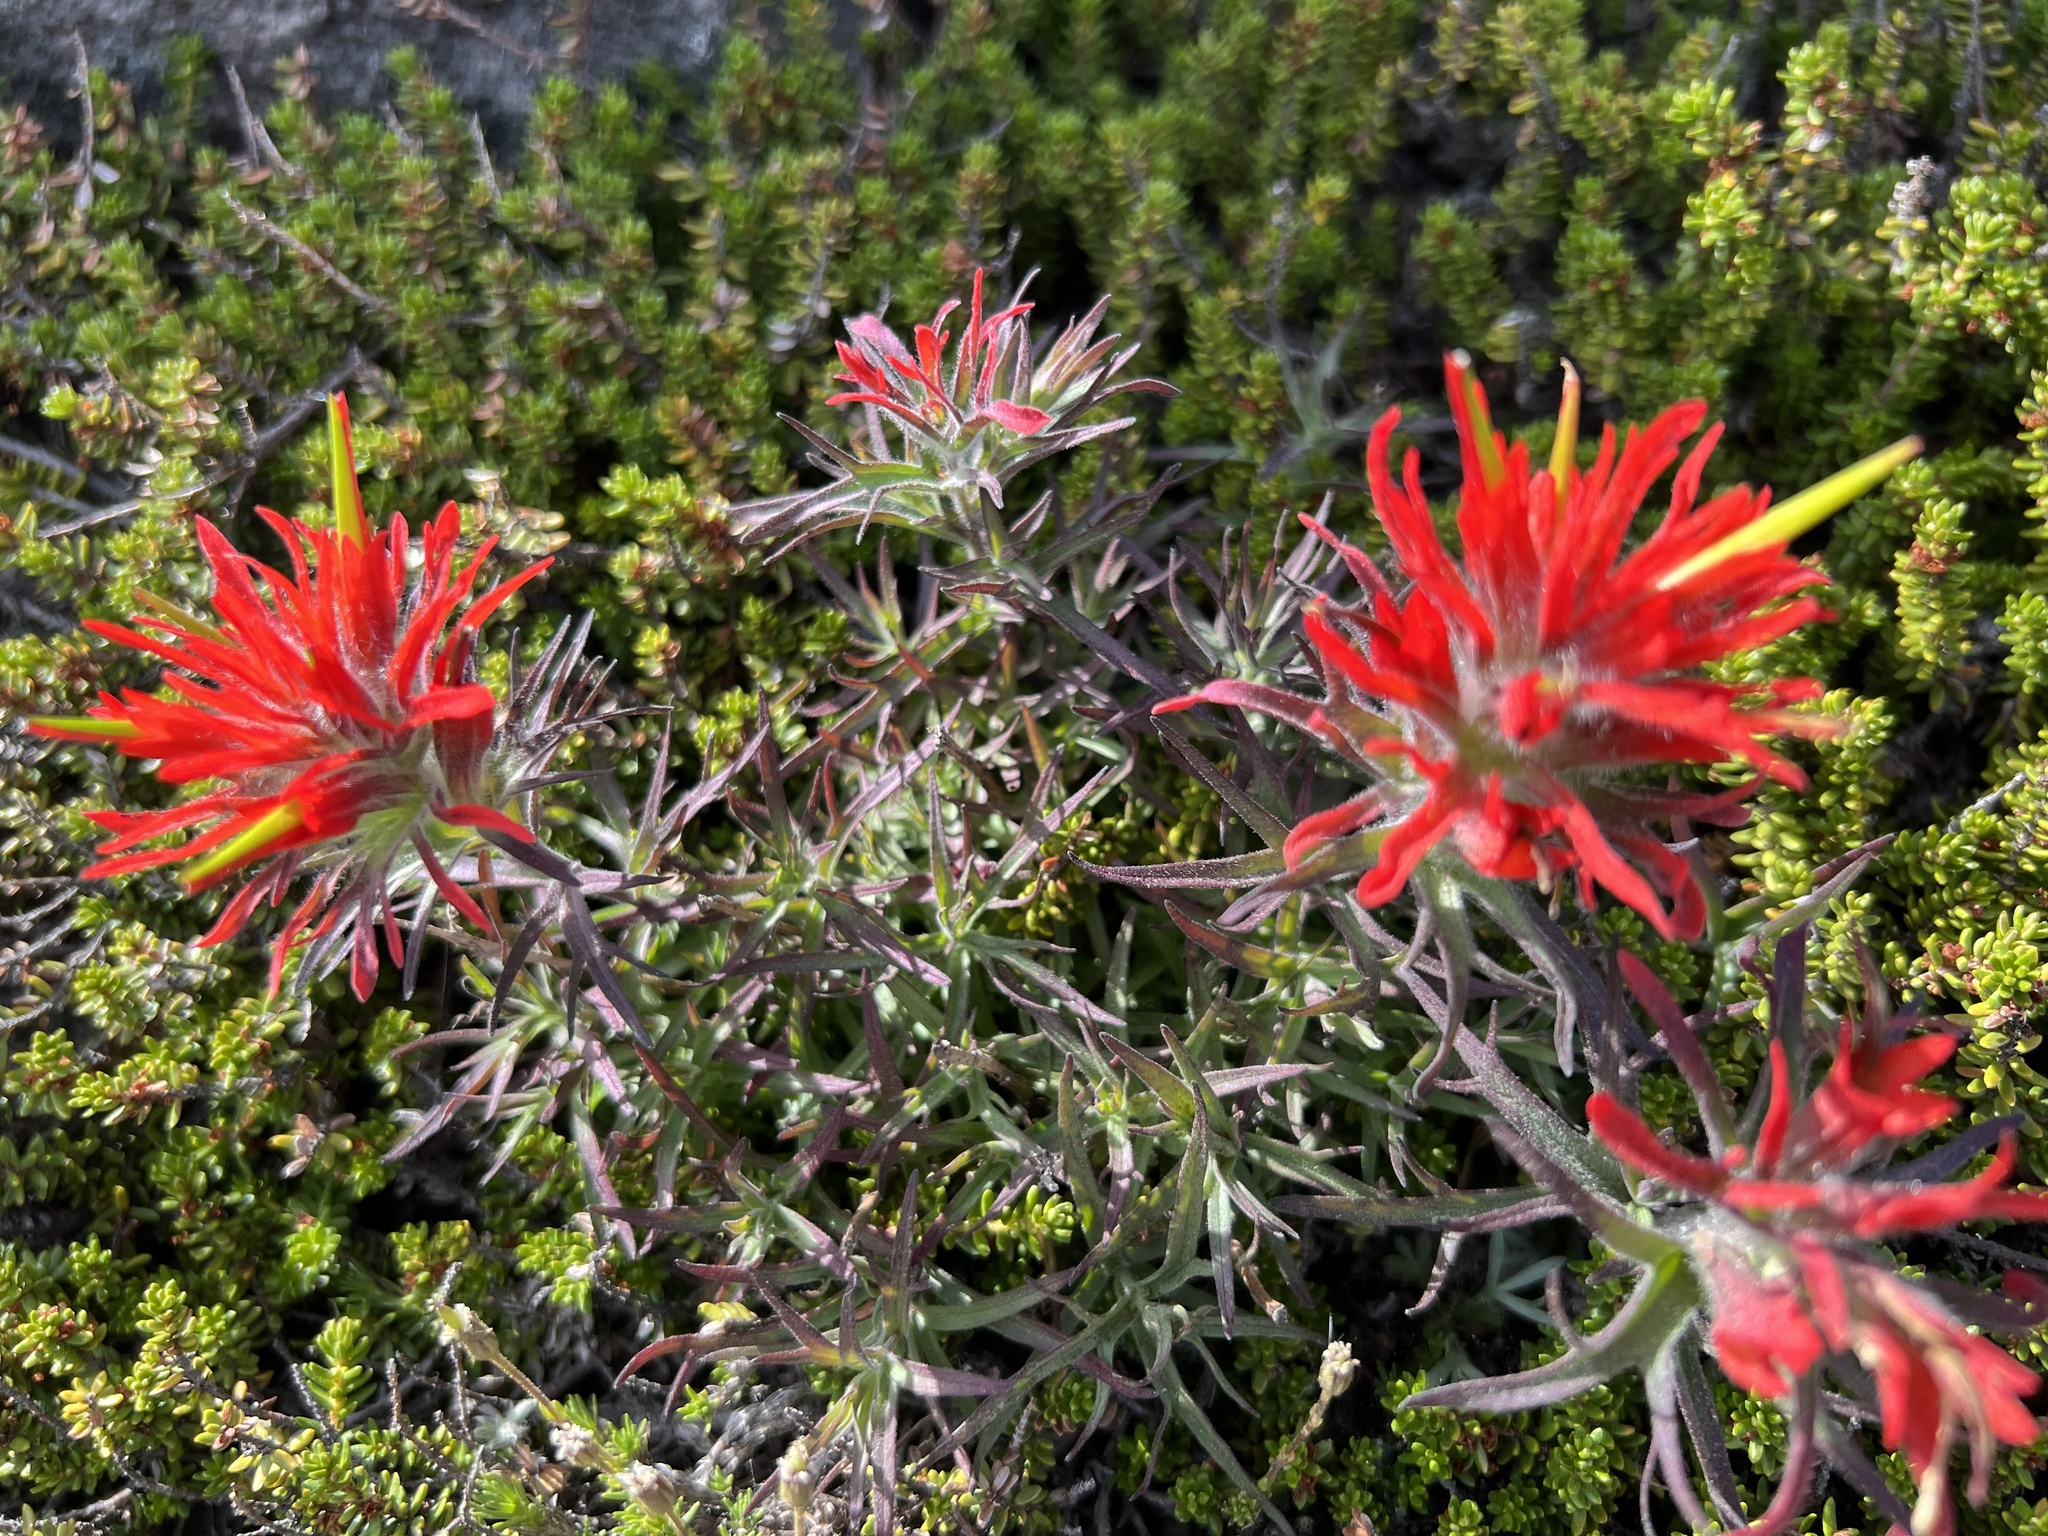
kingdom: Plantae
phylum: Tracheophyta
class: Magnoliopsida
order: Lamiales
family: Orobanchaceae
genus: Castilleja
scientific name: Castilleja rupicola
